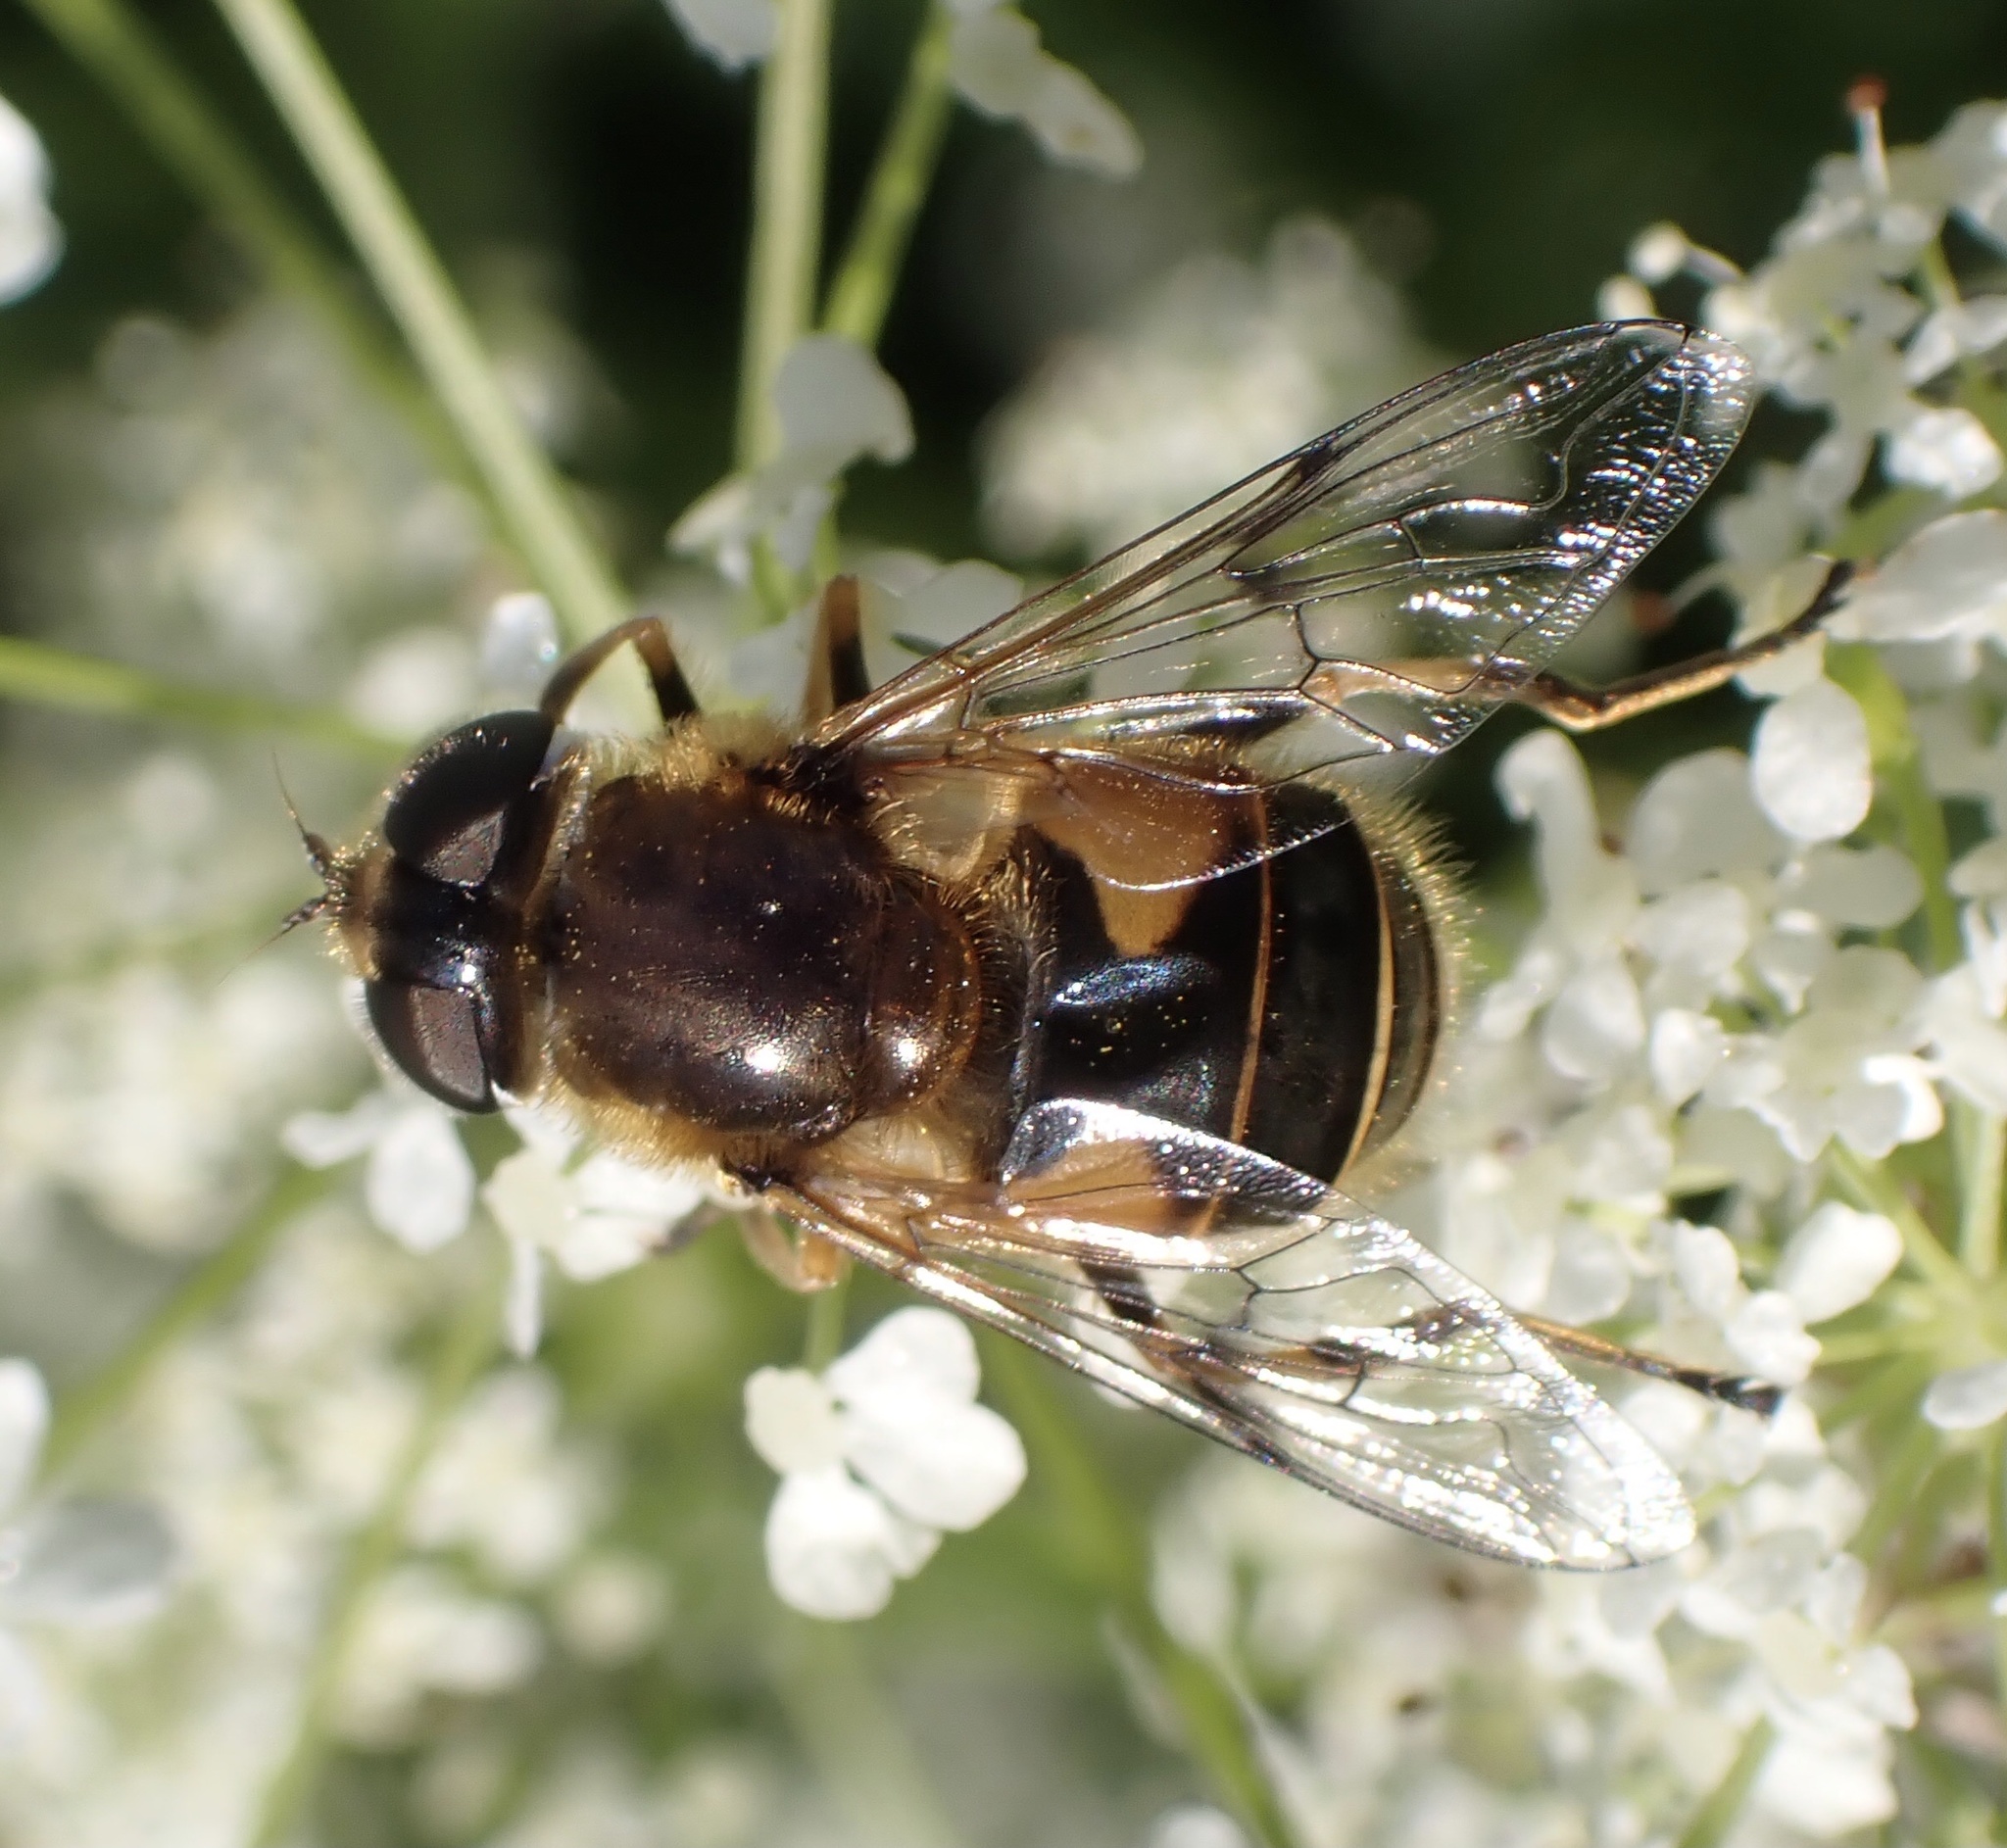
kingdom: Animalia
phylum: Arthropoda
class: Insecta
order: Diptera
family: Syrphidae
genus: Cheilosia
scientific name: Cheilosia morio
